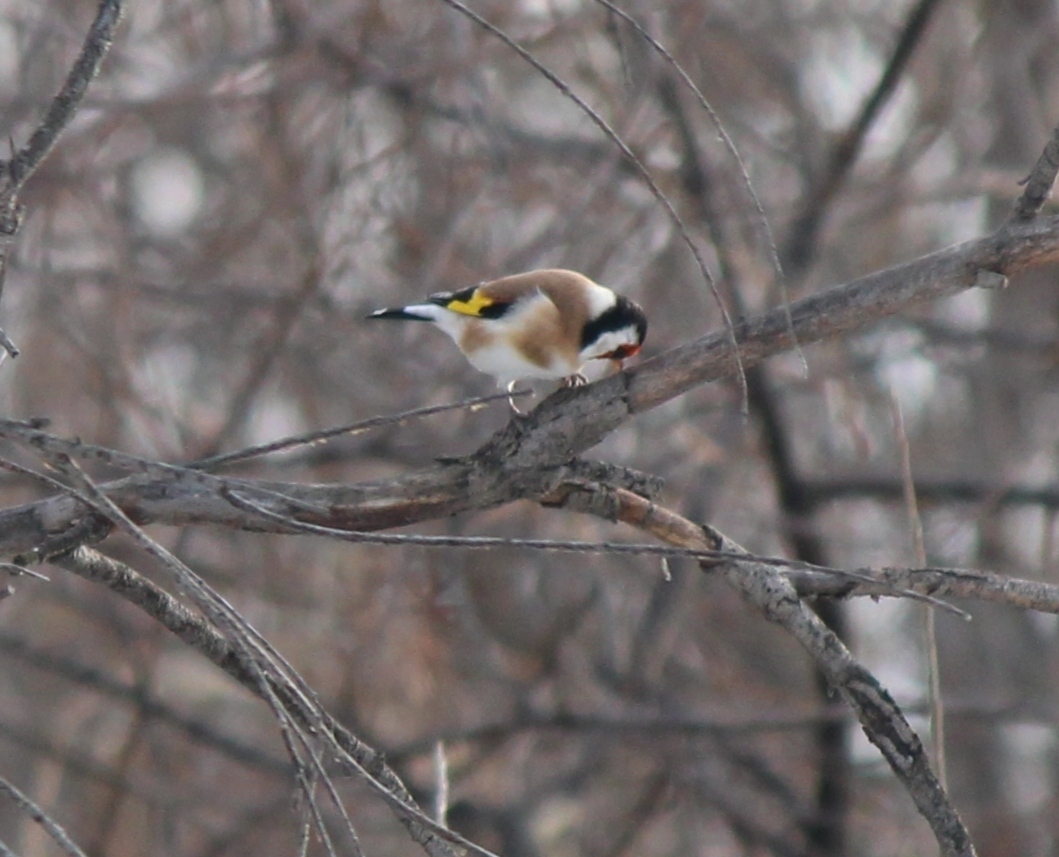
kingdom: Animalia
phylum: Chordata
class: Aves
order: Passeriformes
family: Fringillidae
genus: Carduelis
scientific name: Carduelis carduelis
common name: European goldfinch
